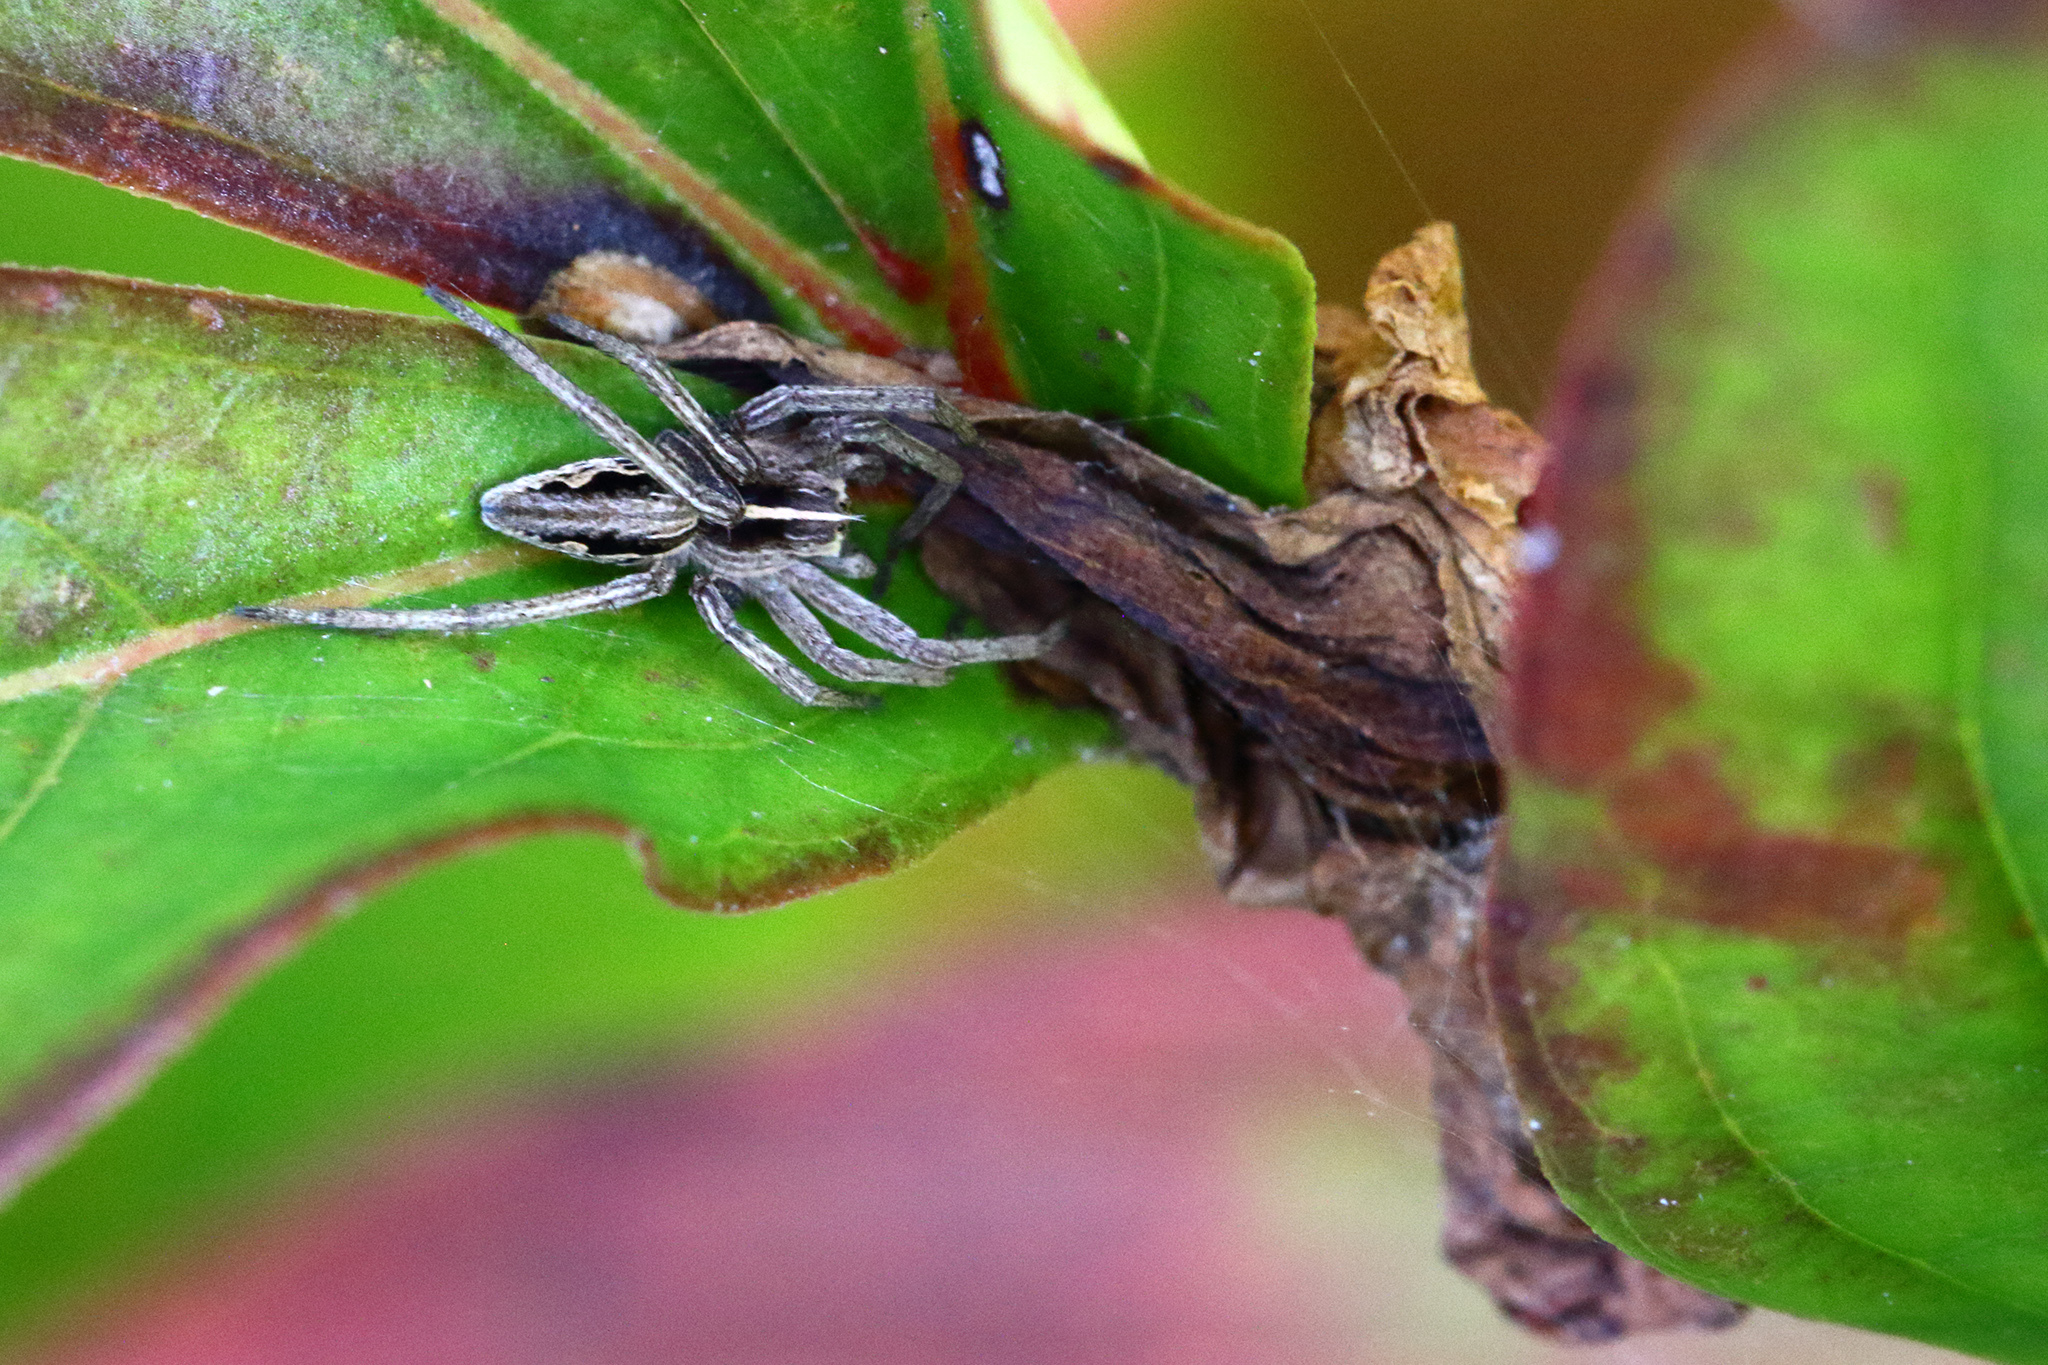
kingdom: Animalia
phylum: Arthropoda
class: Arachnida
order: Araneae
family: Pisauridae
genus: Pisaura
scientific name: Pisaura mirabilis
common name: Tent spider
